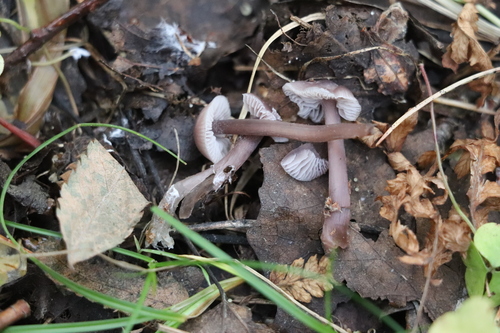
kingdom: Fungi
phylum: Basidiomycota
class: Agaricomycetes
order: Agaricales
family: Mycenaceae
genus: Mycena
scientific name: Mycena pura
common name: Lilac bonnet
